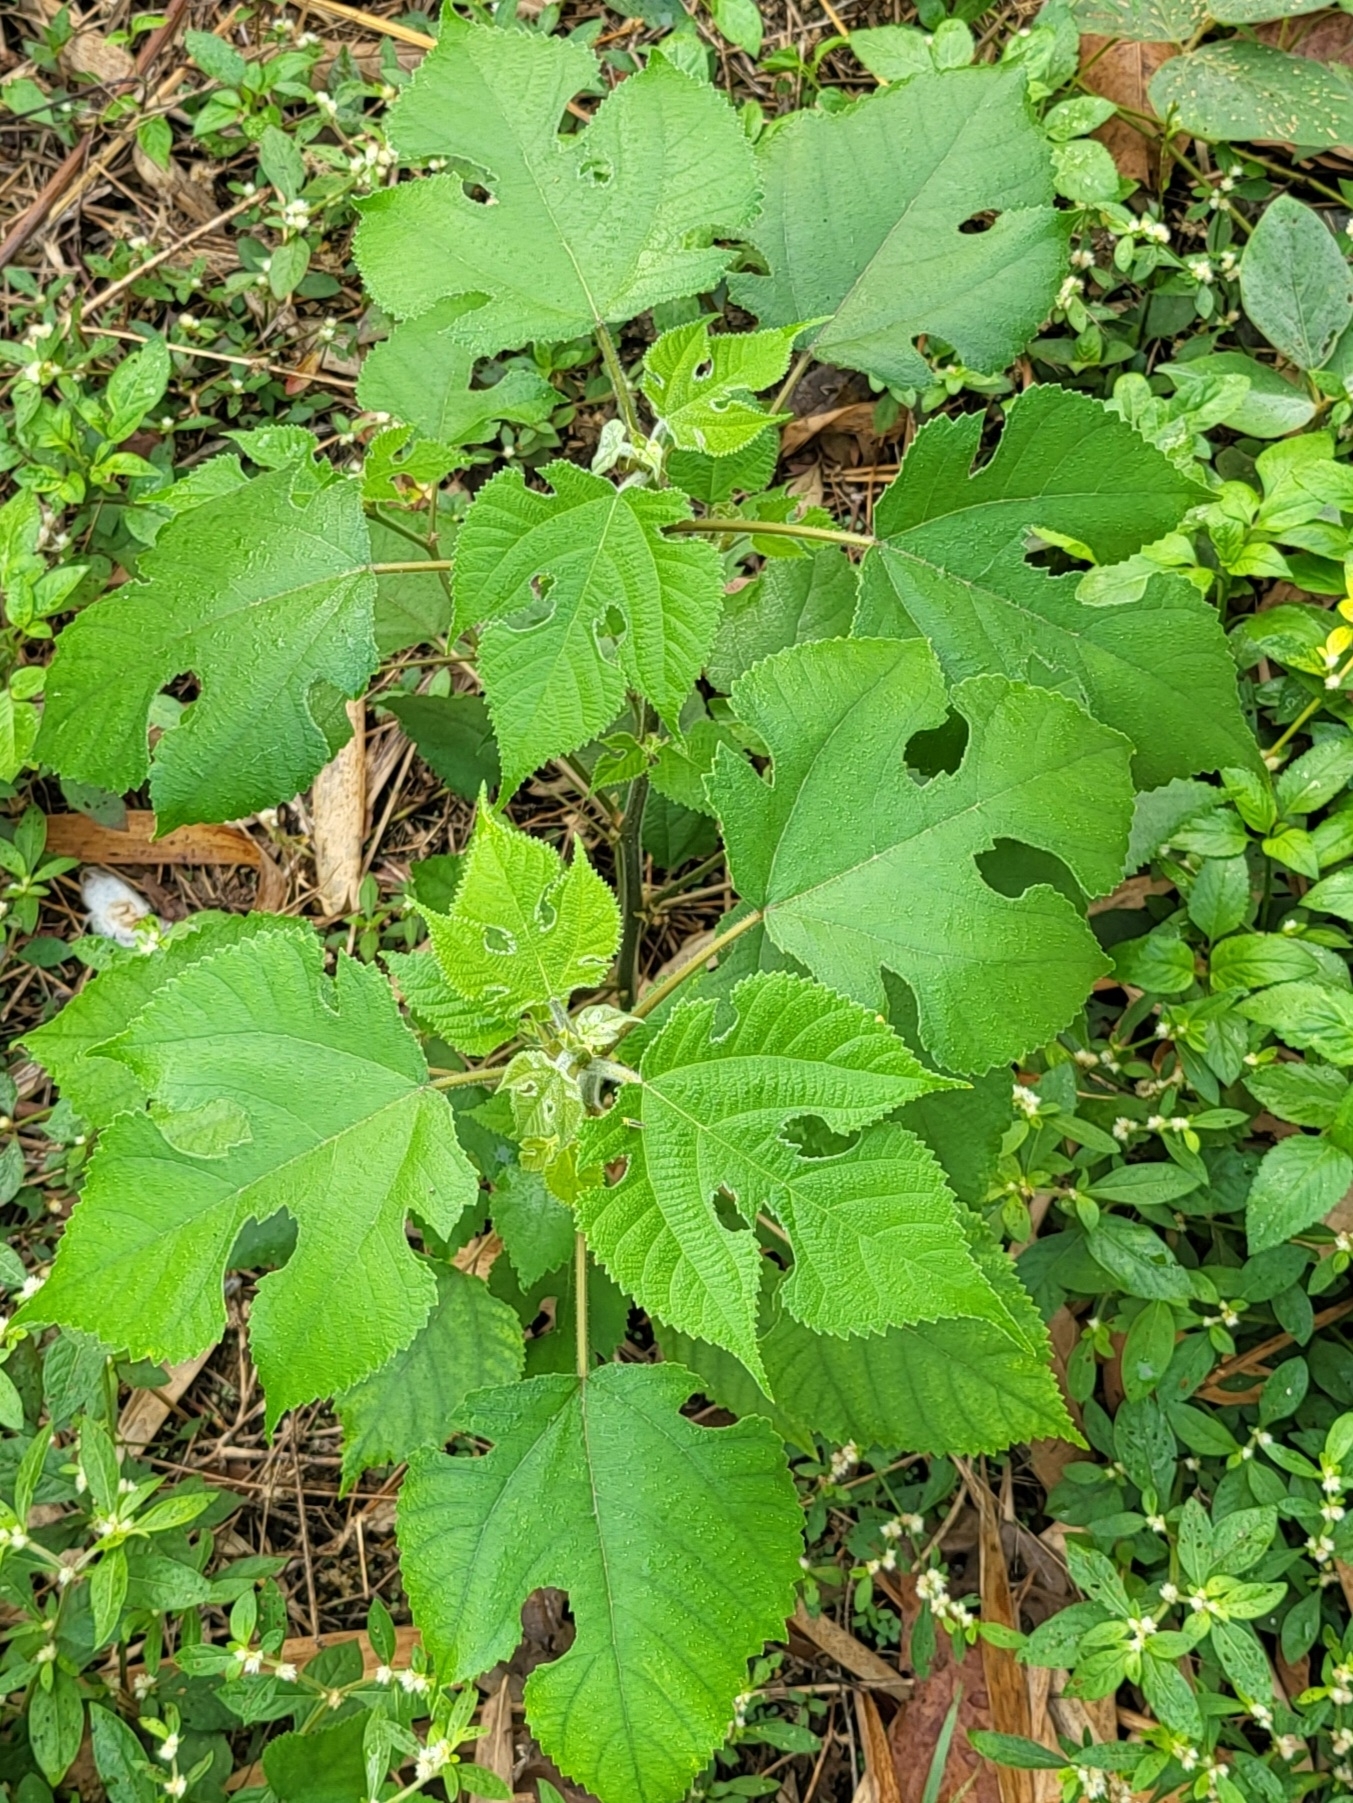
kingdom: Plantae
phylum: Tracheophyta
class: Magnoliopsida
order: Rosales
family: Moraceae
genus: Broussonetia
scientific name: Broussonetia papyrifera
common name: Paper mulberry
